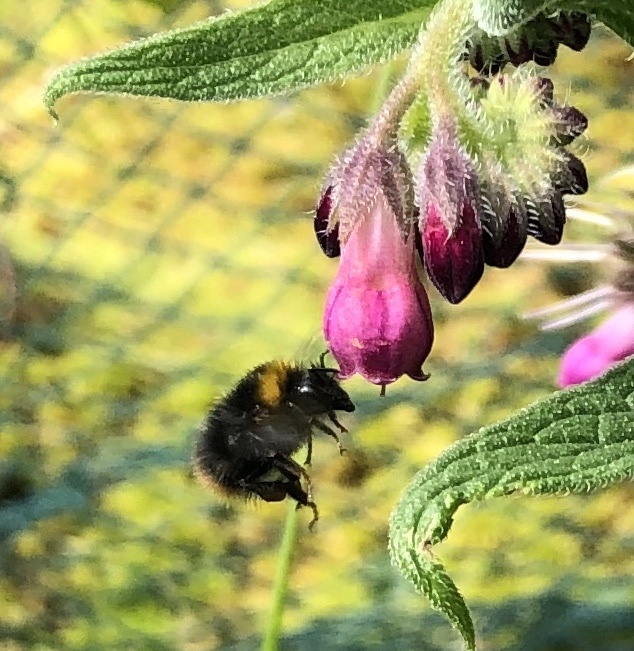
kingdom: Animalia
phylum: Arthropoda
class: Insecta
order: Hymenoptera
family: Apidae
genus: Bombus
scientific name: Bombus pratorum
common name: Early humble-bee
